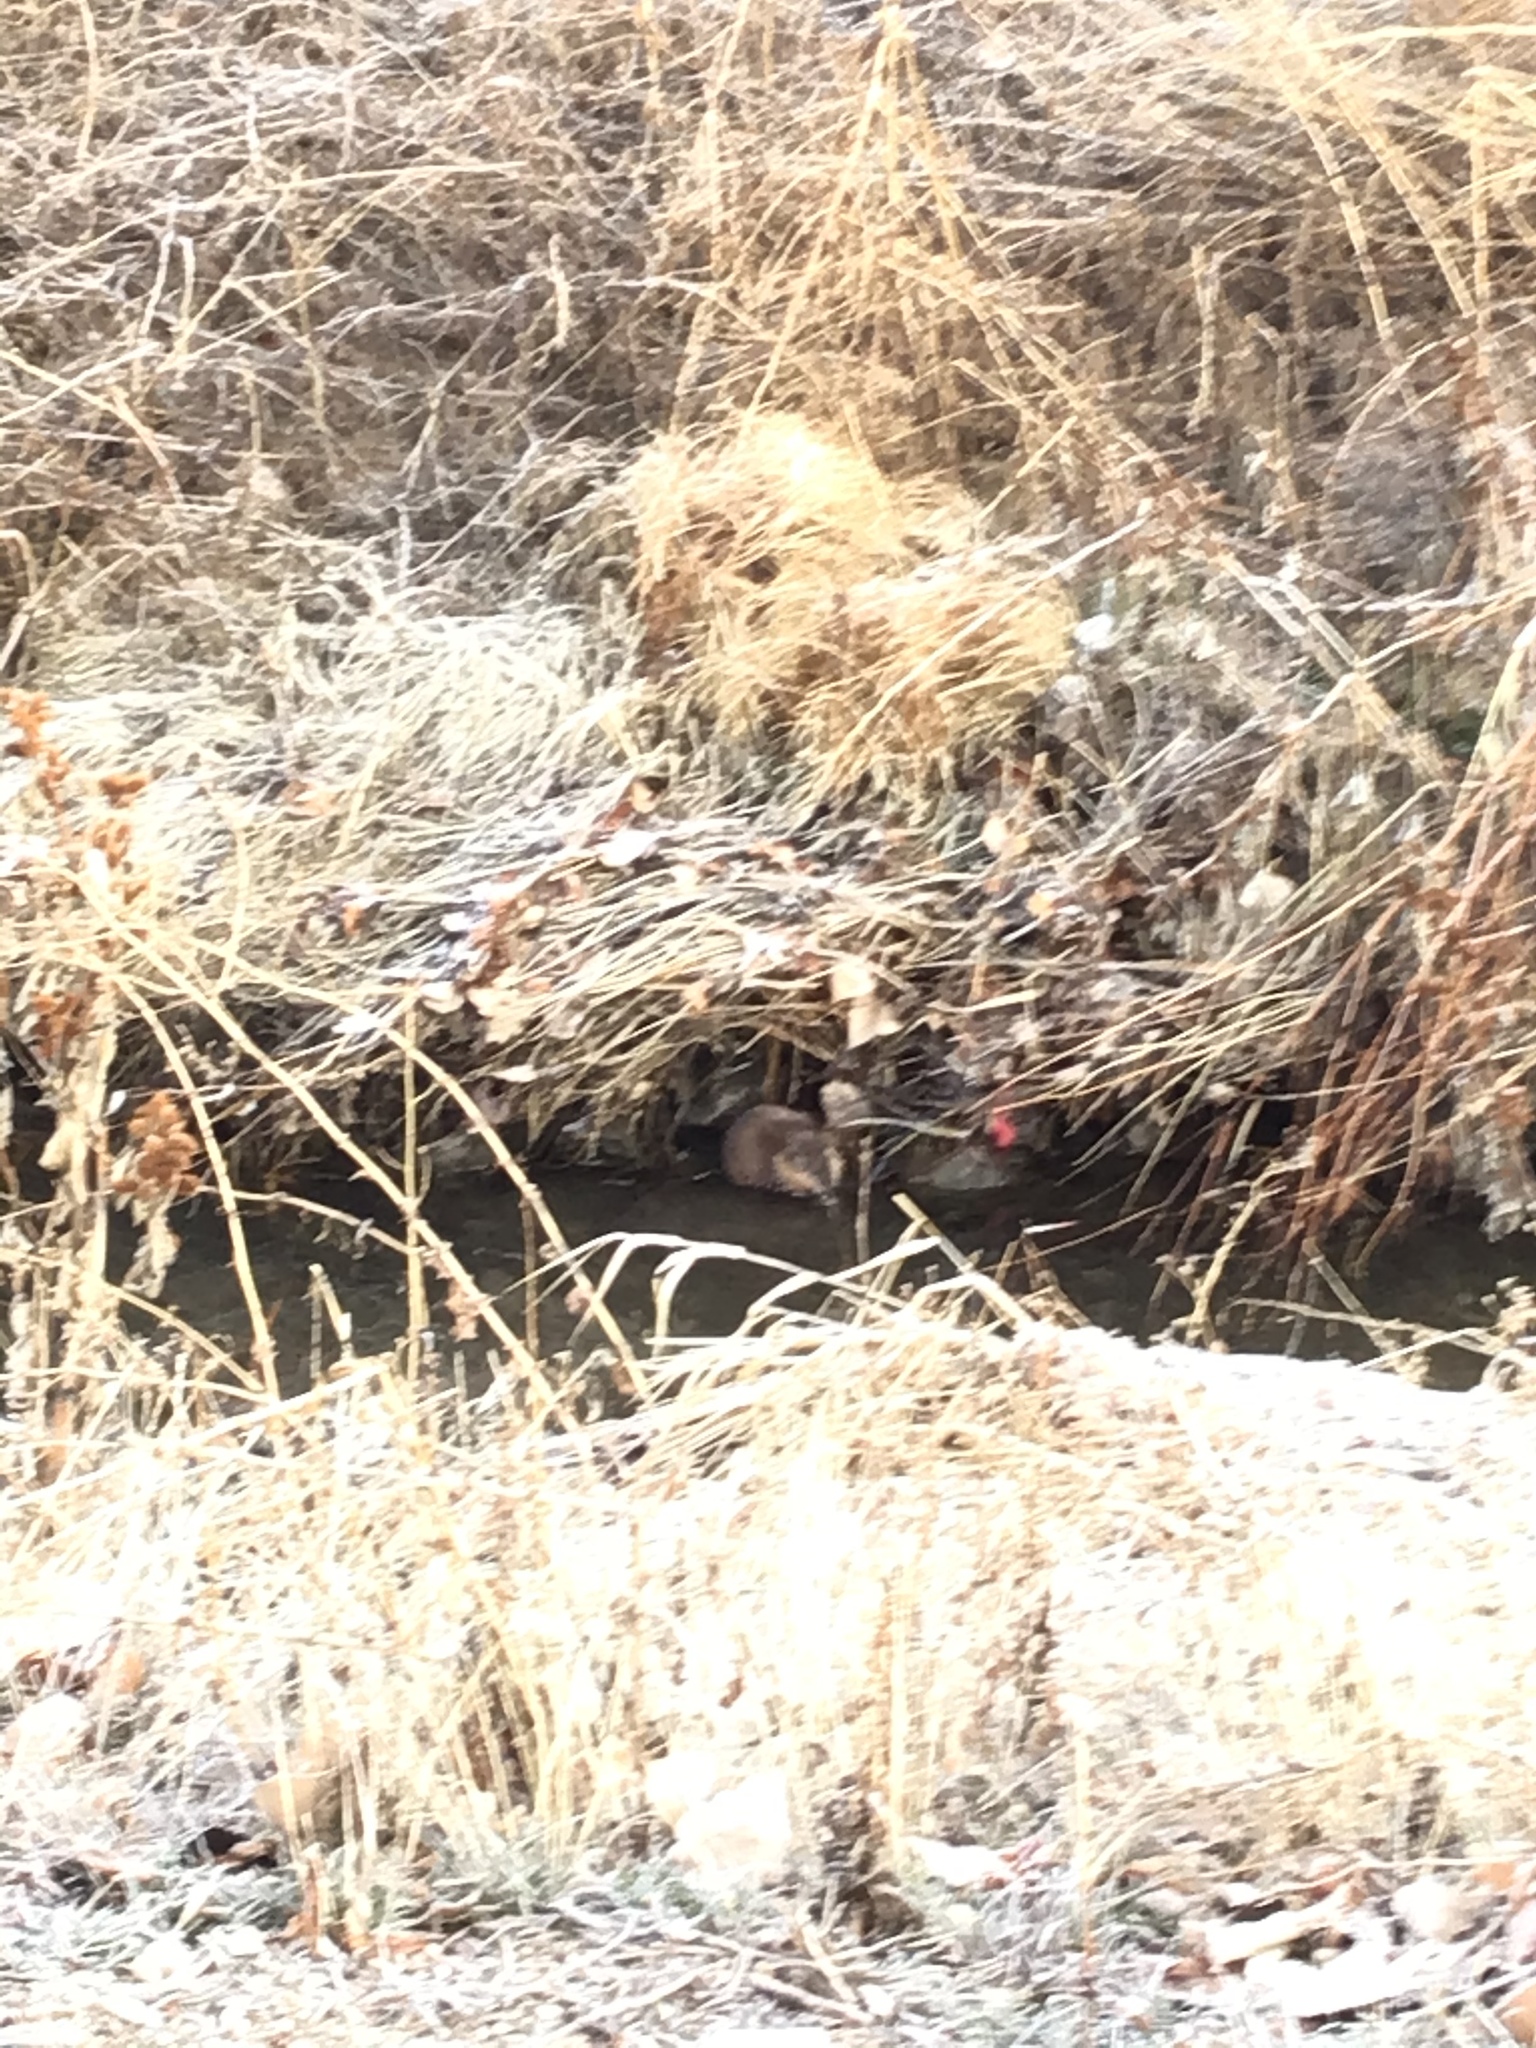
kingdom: Animalia
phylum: Chordata
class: Mammalia
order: Rodentia
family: Cricetidae
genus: Ondatra
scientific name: Ondatra zibethicus
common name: Muskrat
